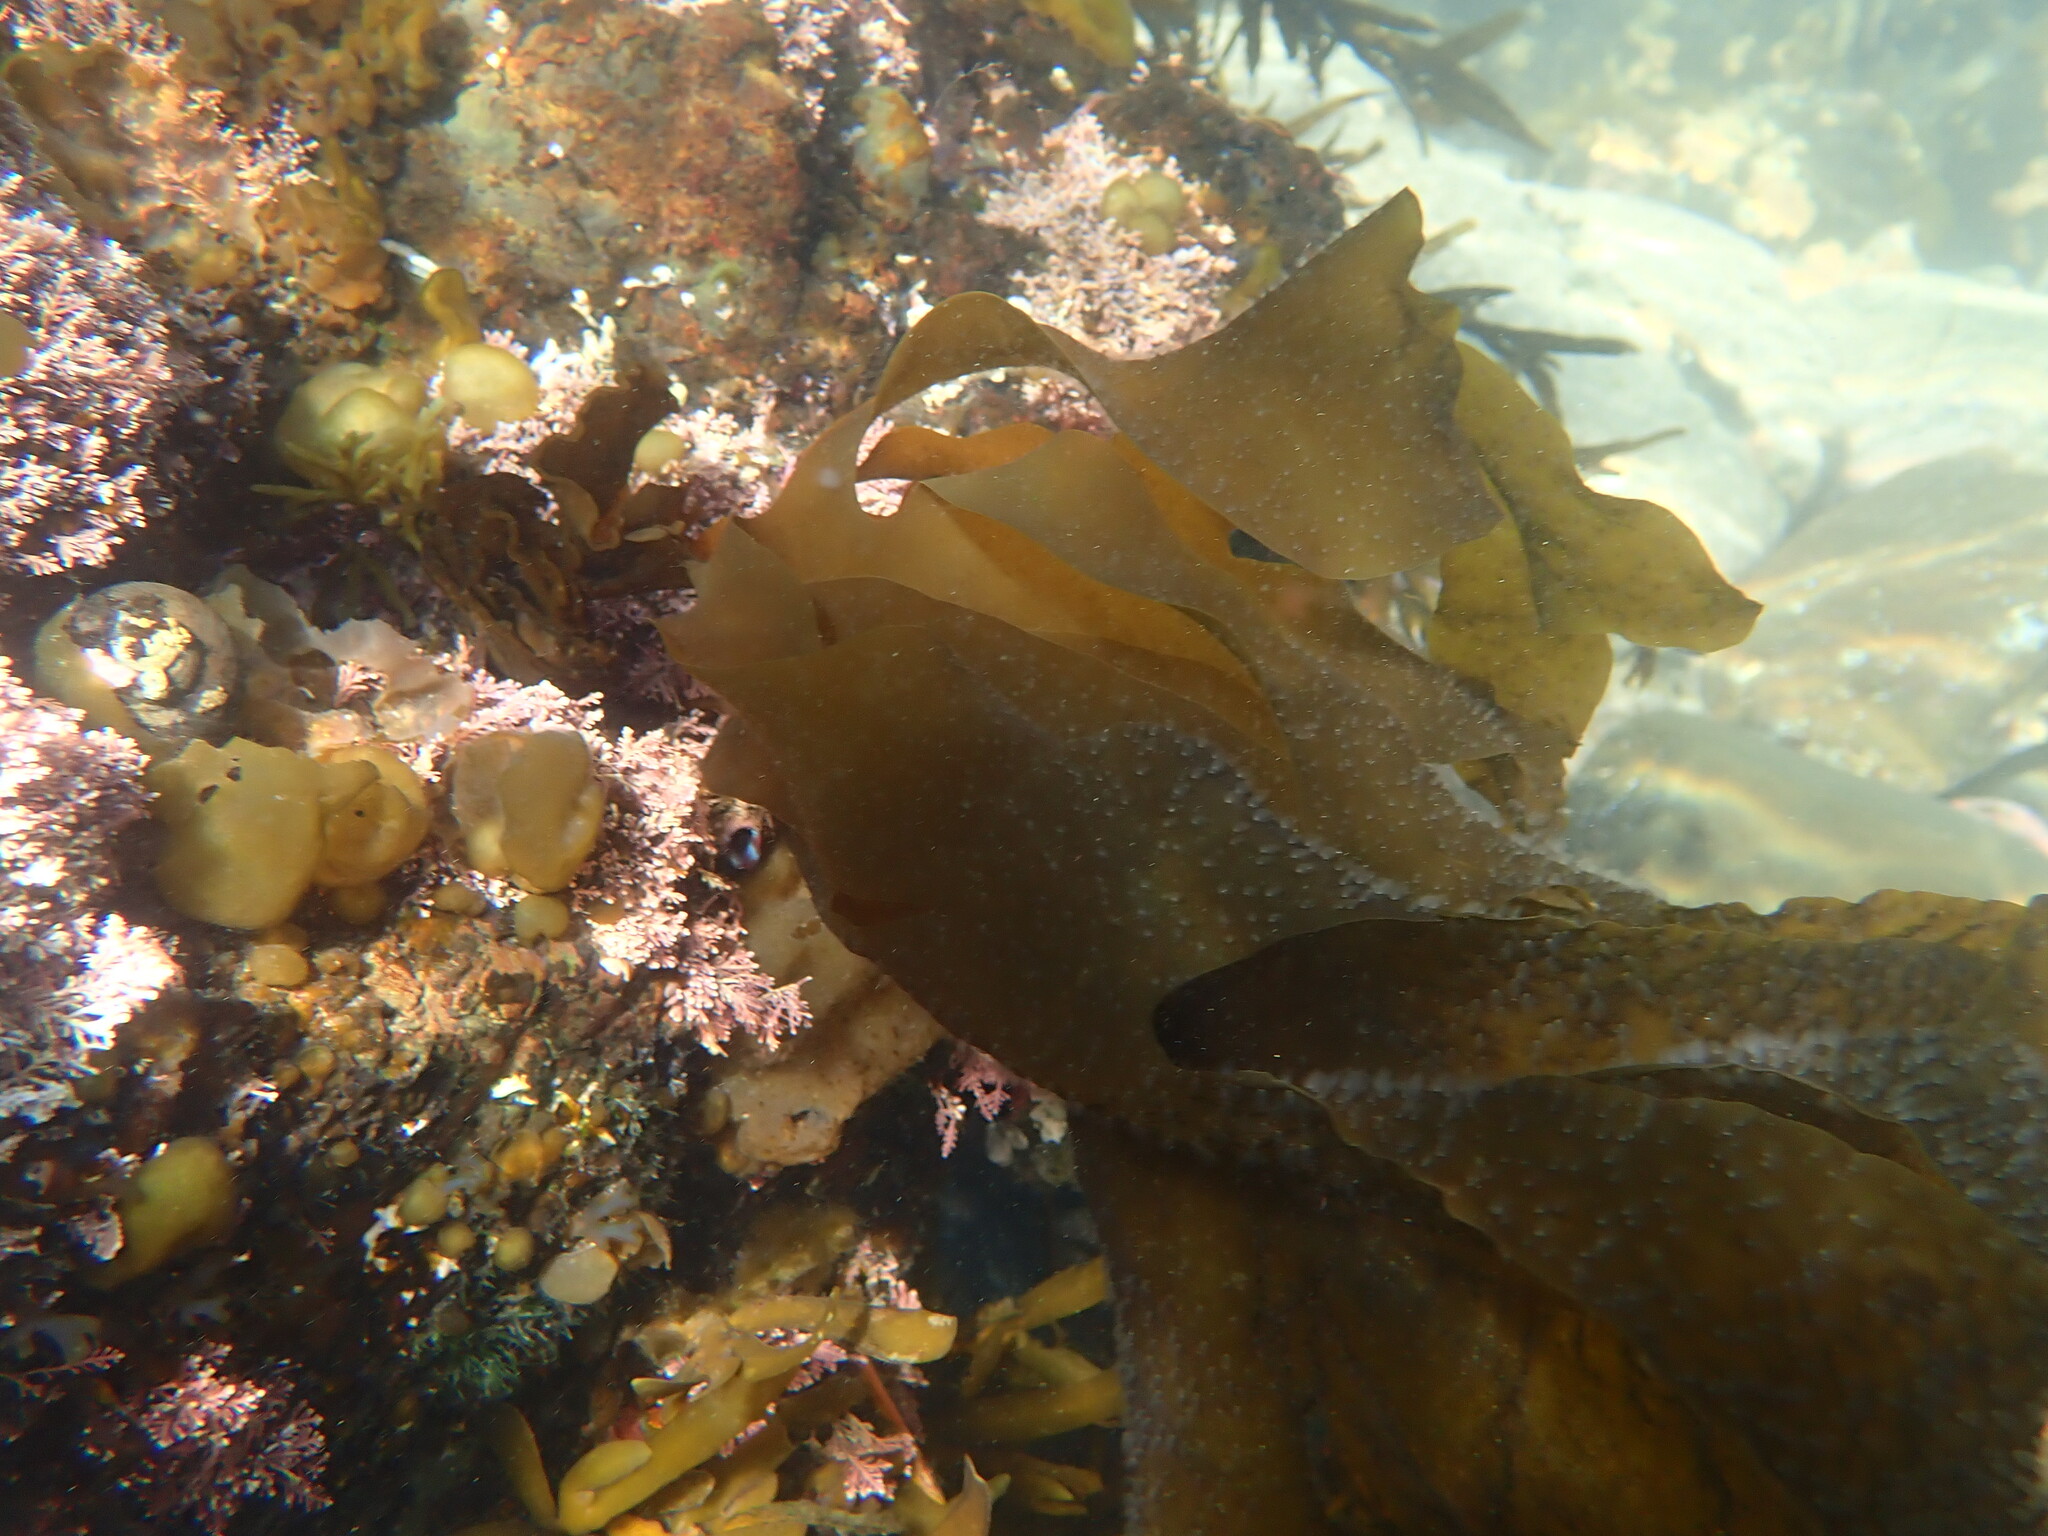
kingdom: Chromista
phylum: Ochrophyta
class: Phaeophyceae
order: Laminariales
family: Alariaceae
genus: Undaria
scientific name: Undaria pinnatifida
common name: Asian kelp
